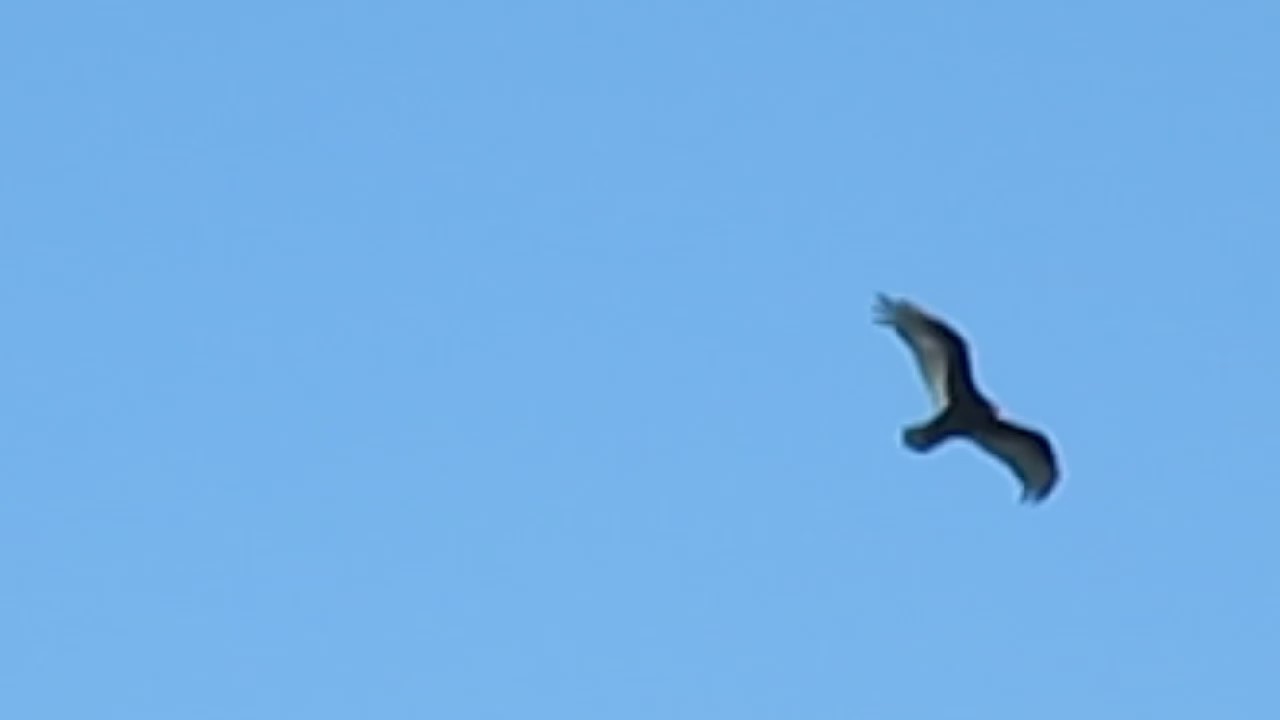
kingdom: Animalia
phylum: Chordata
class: Aves
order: Accipitriformes
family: Cathartidae
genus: Cathartes
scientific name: Cathartes aura
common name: Turkey vulture
